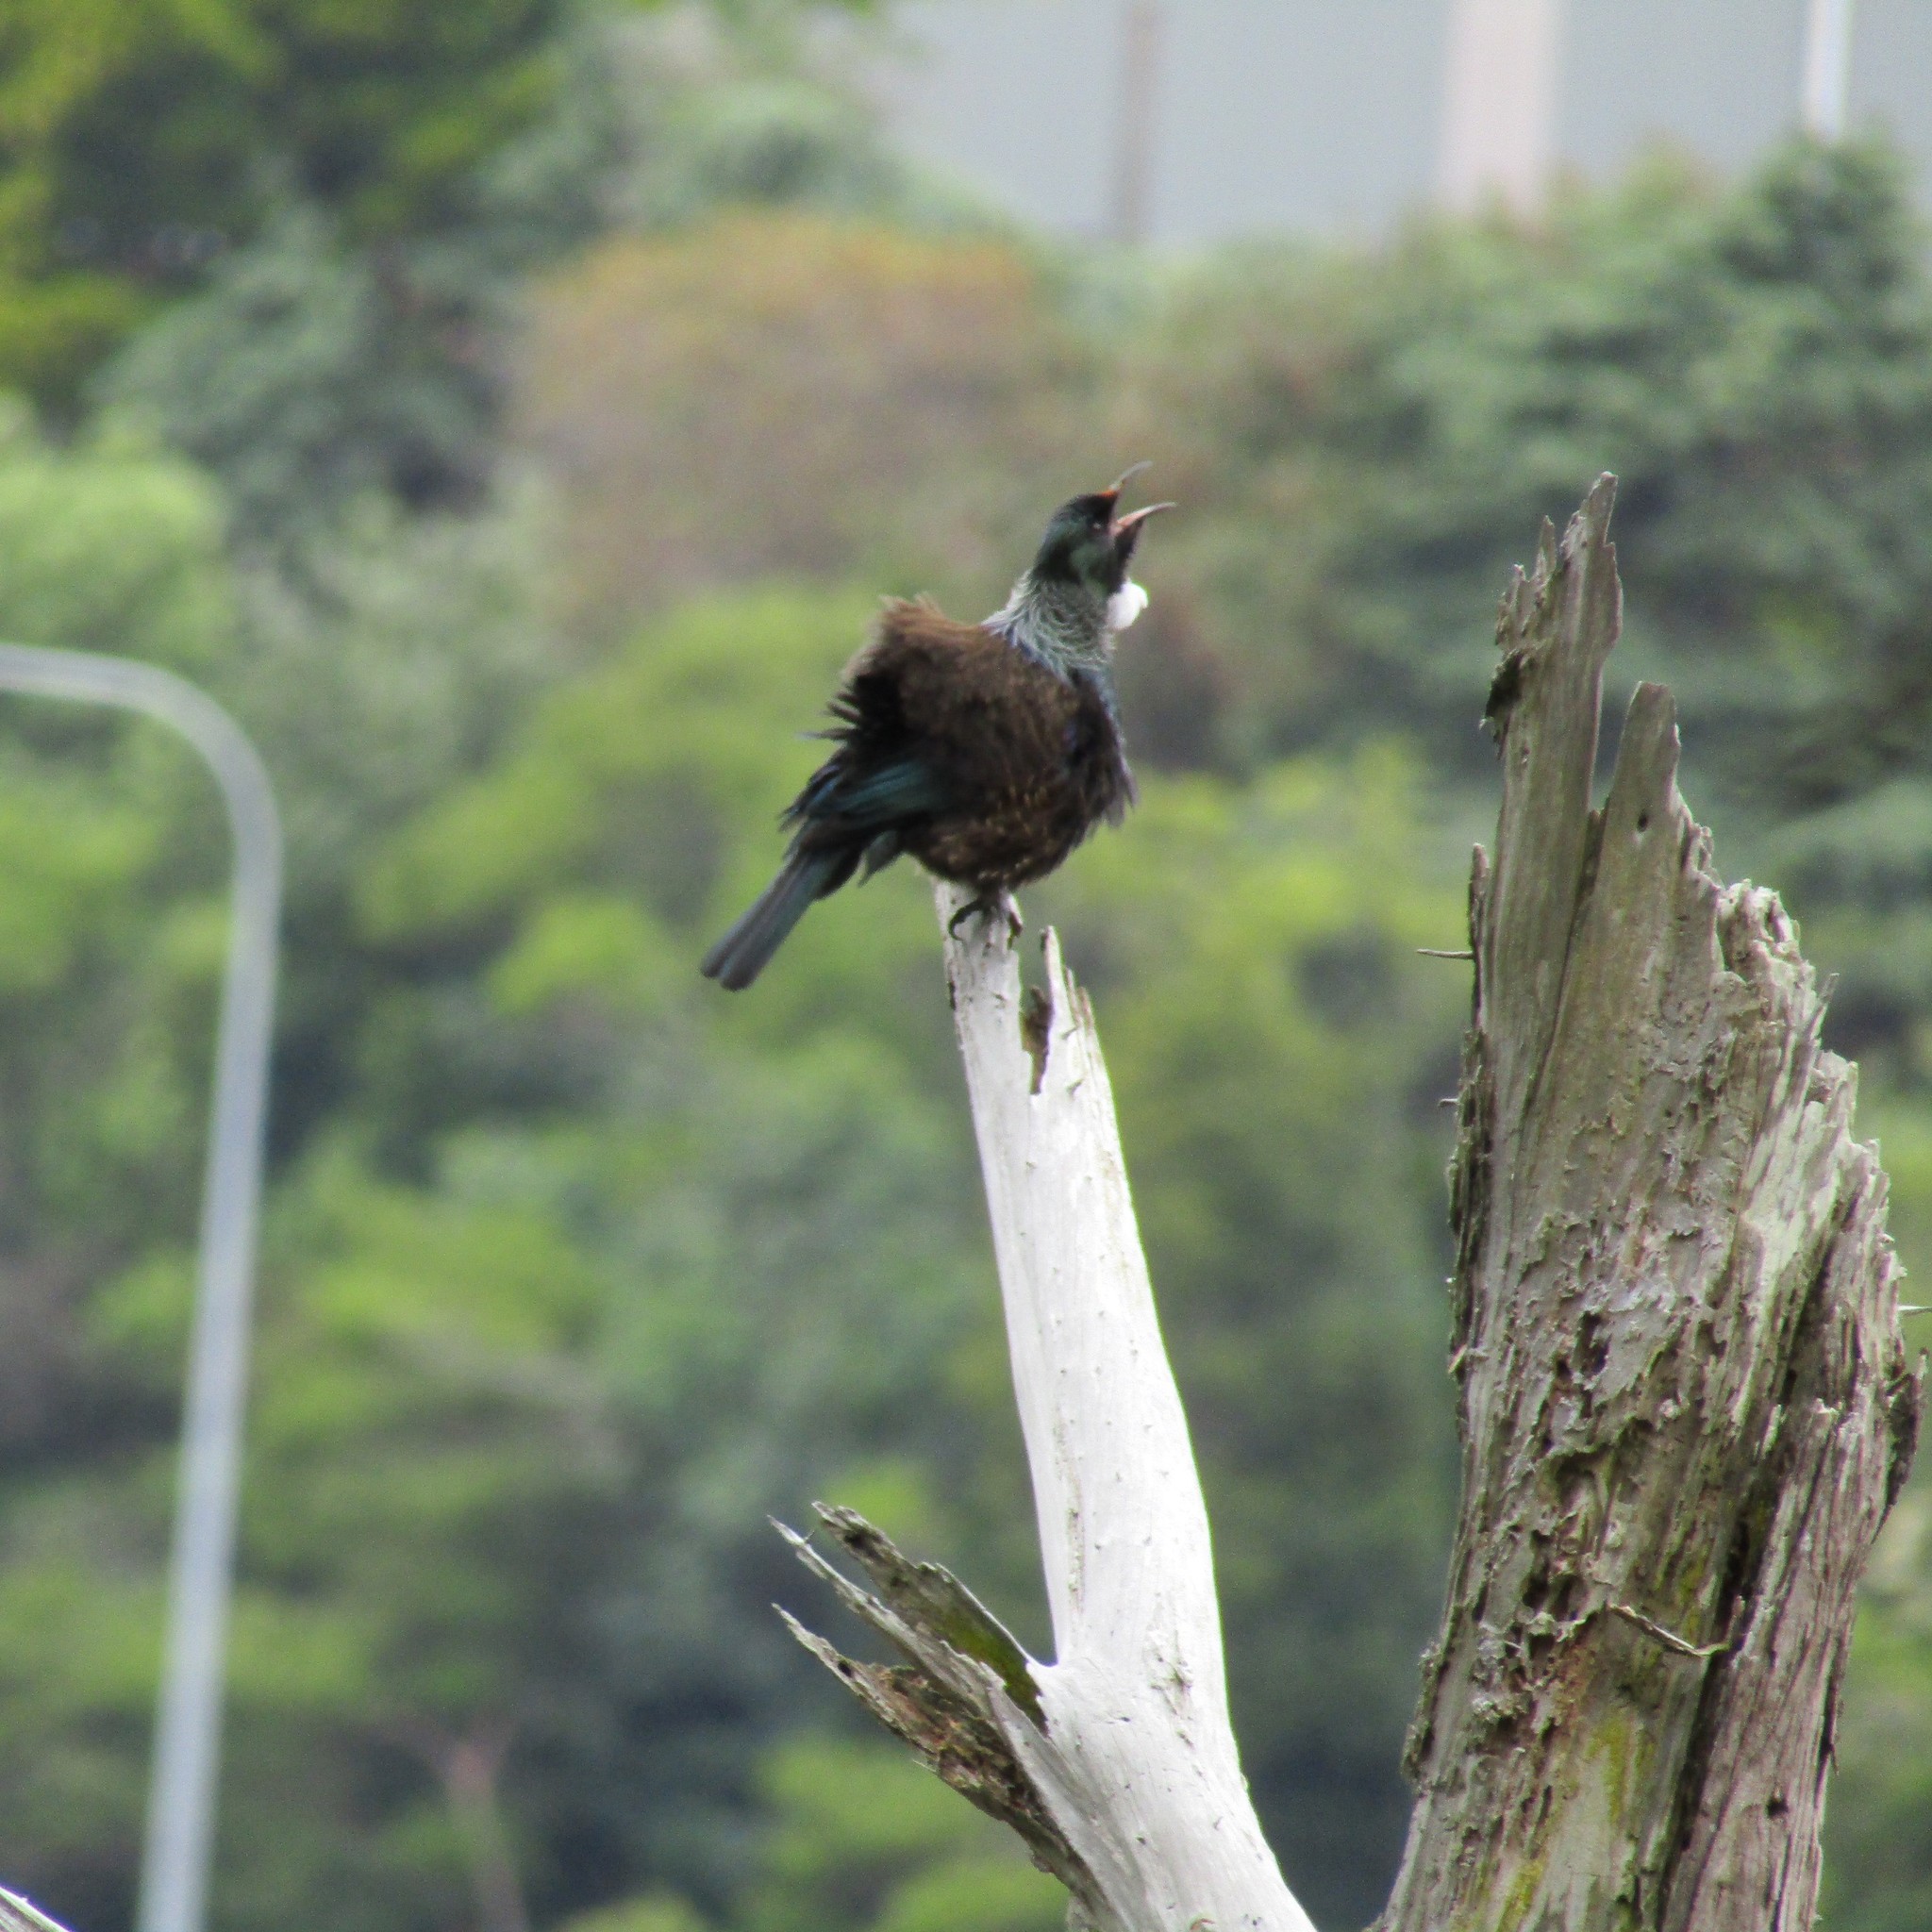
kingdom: Animalia
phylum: Chordata
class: Aves
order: Passeriformes
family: Meliphagidae
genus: Prosthemadera
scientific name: Prosthemadera novaeseelandiae
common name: Tui
